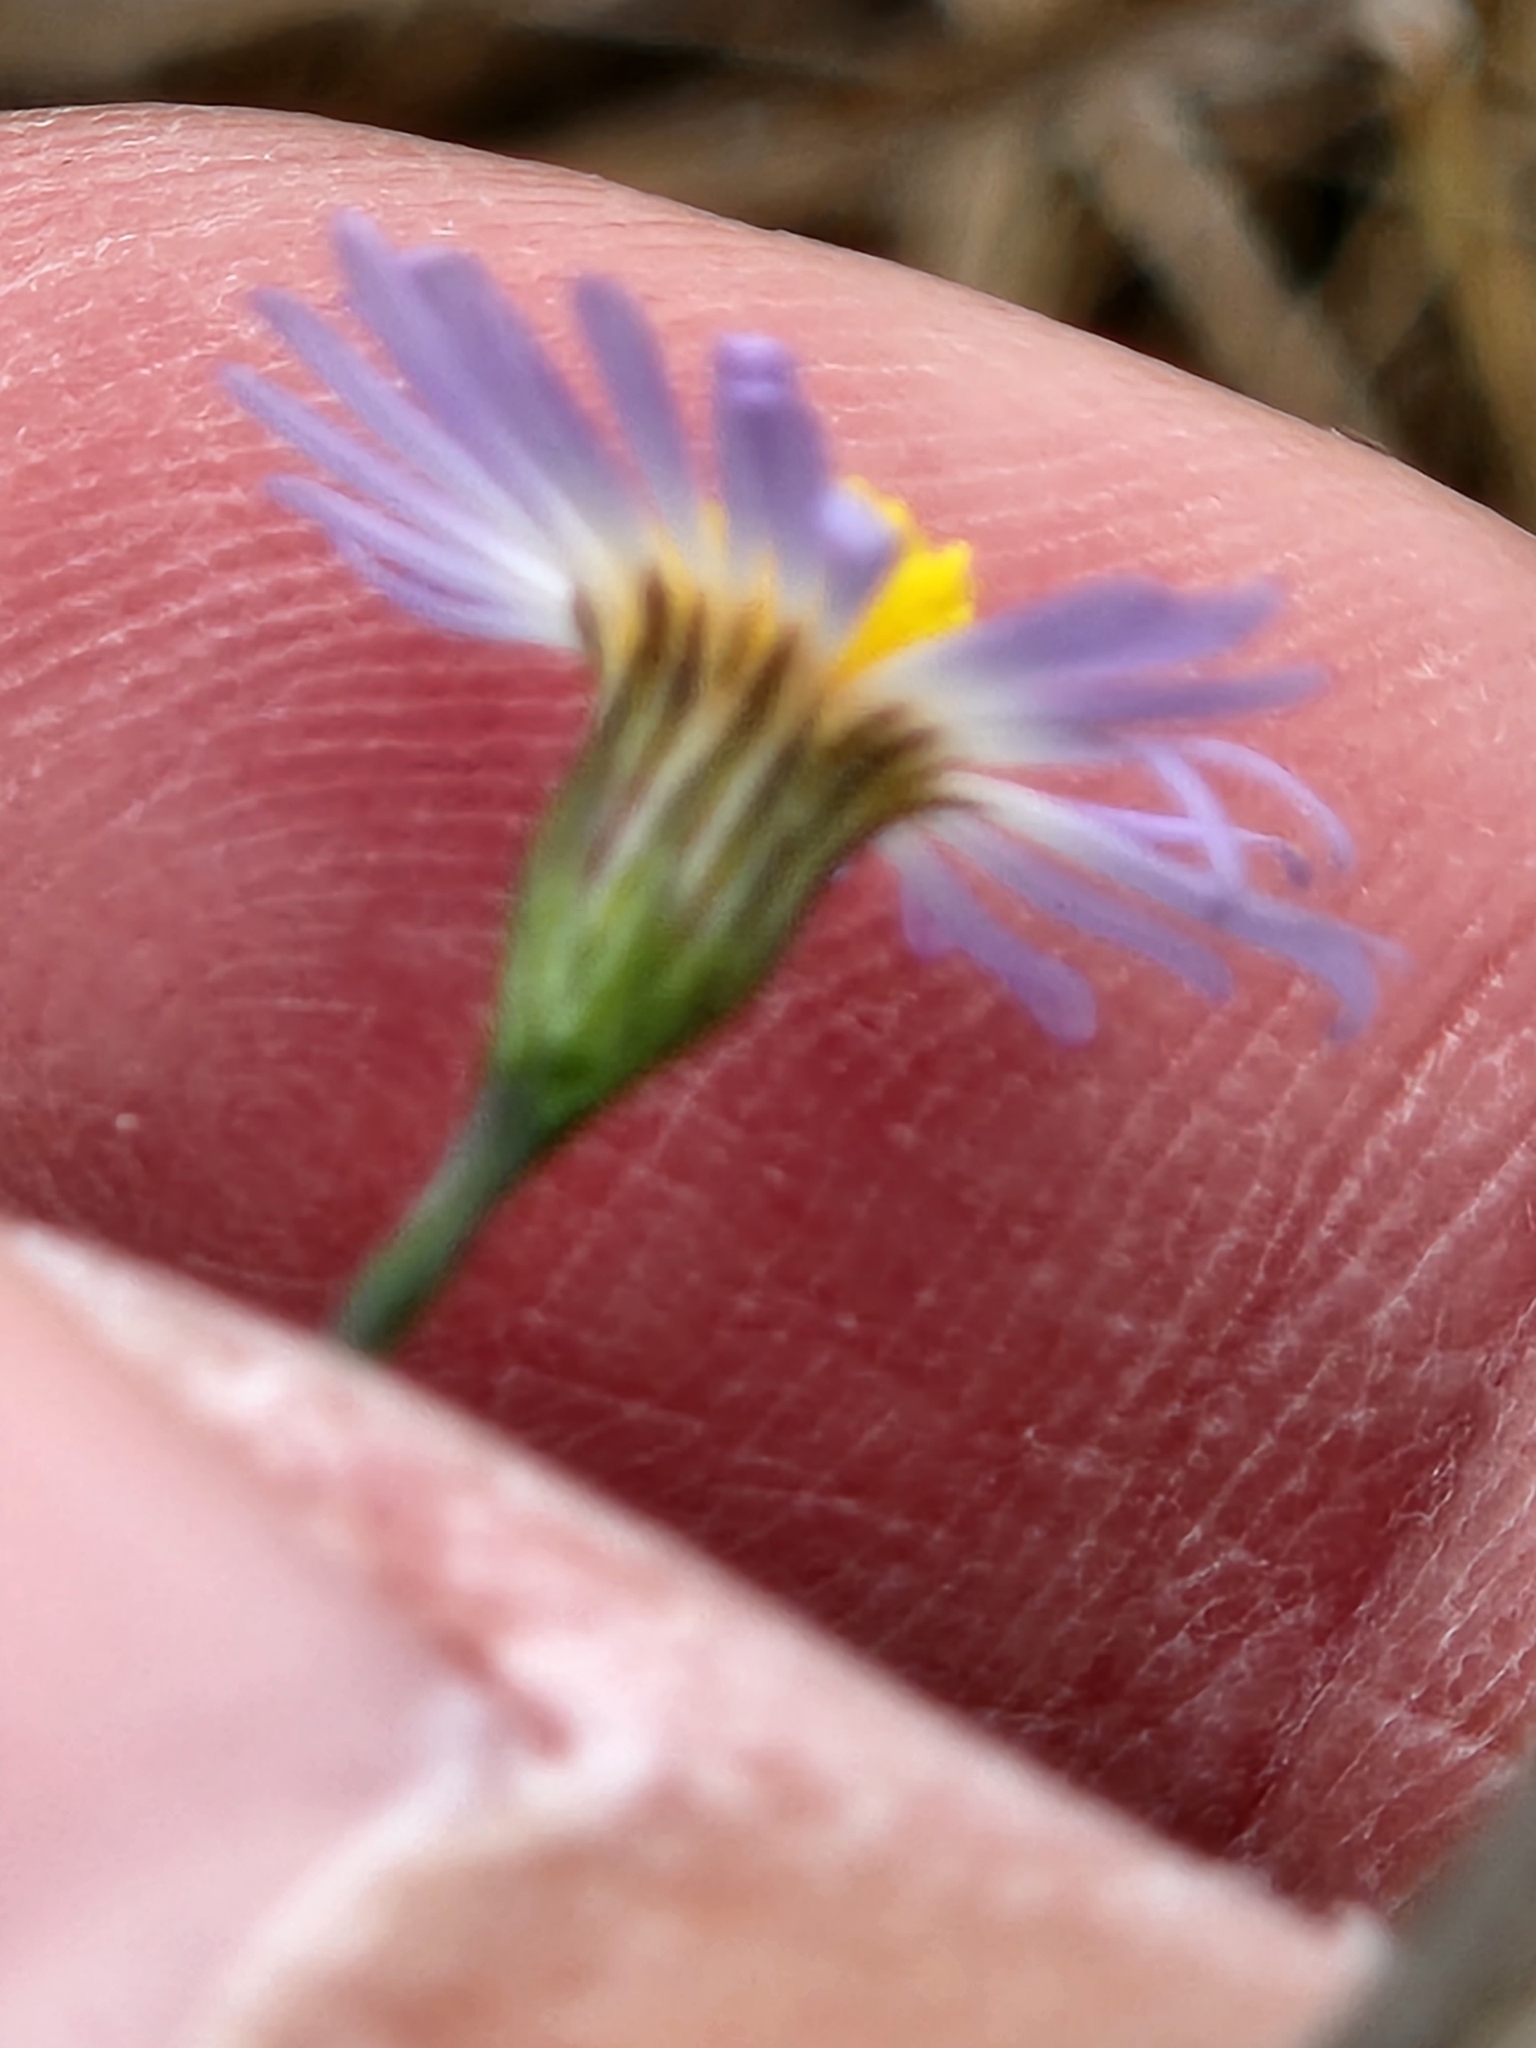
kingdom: Plantae
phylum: Tracheophyta
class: Magnoliopsida
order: Asterales
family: Asteraceae
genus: Symphyotrichum
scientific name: Symphyotrichum divaricatum
